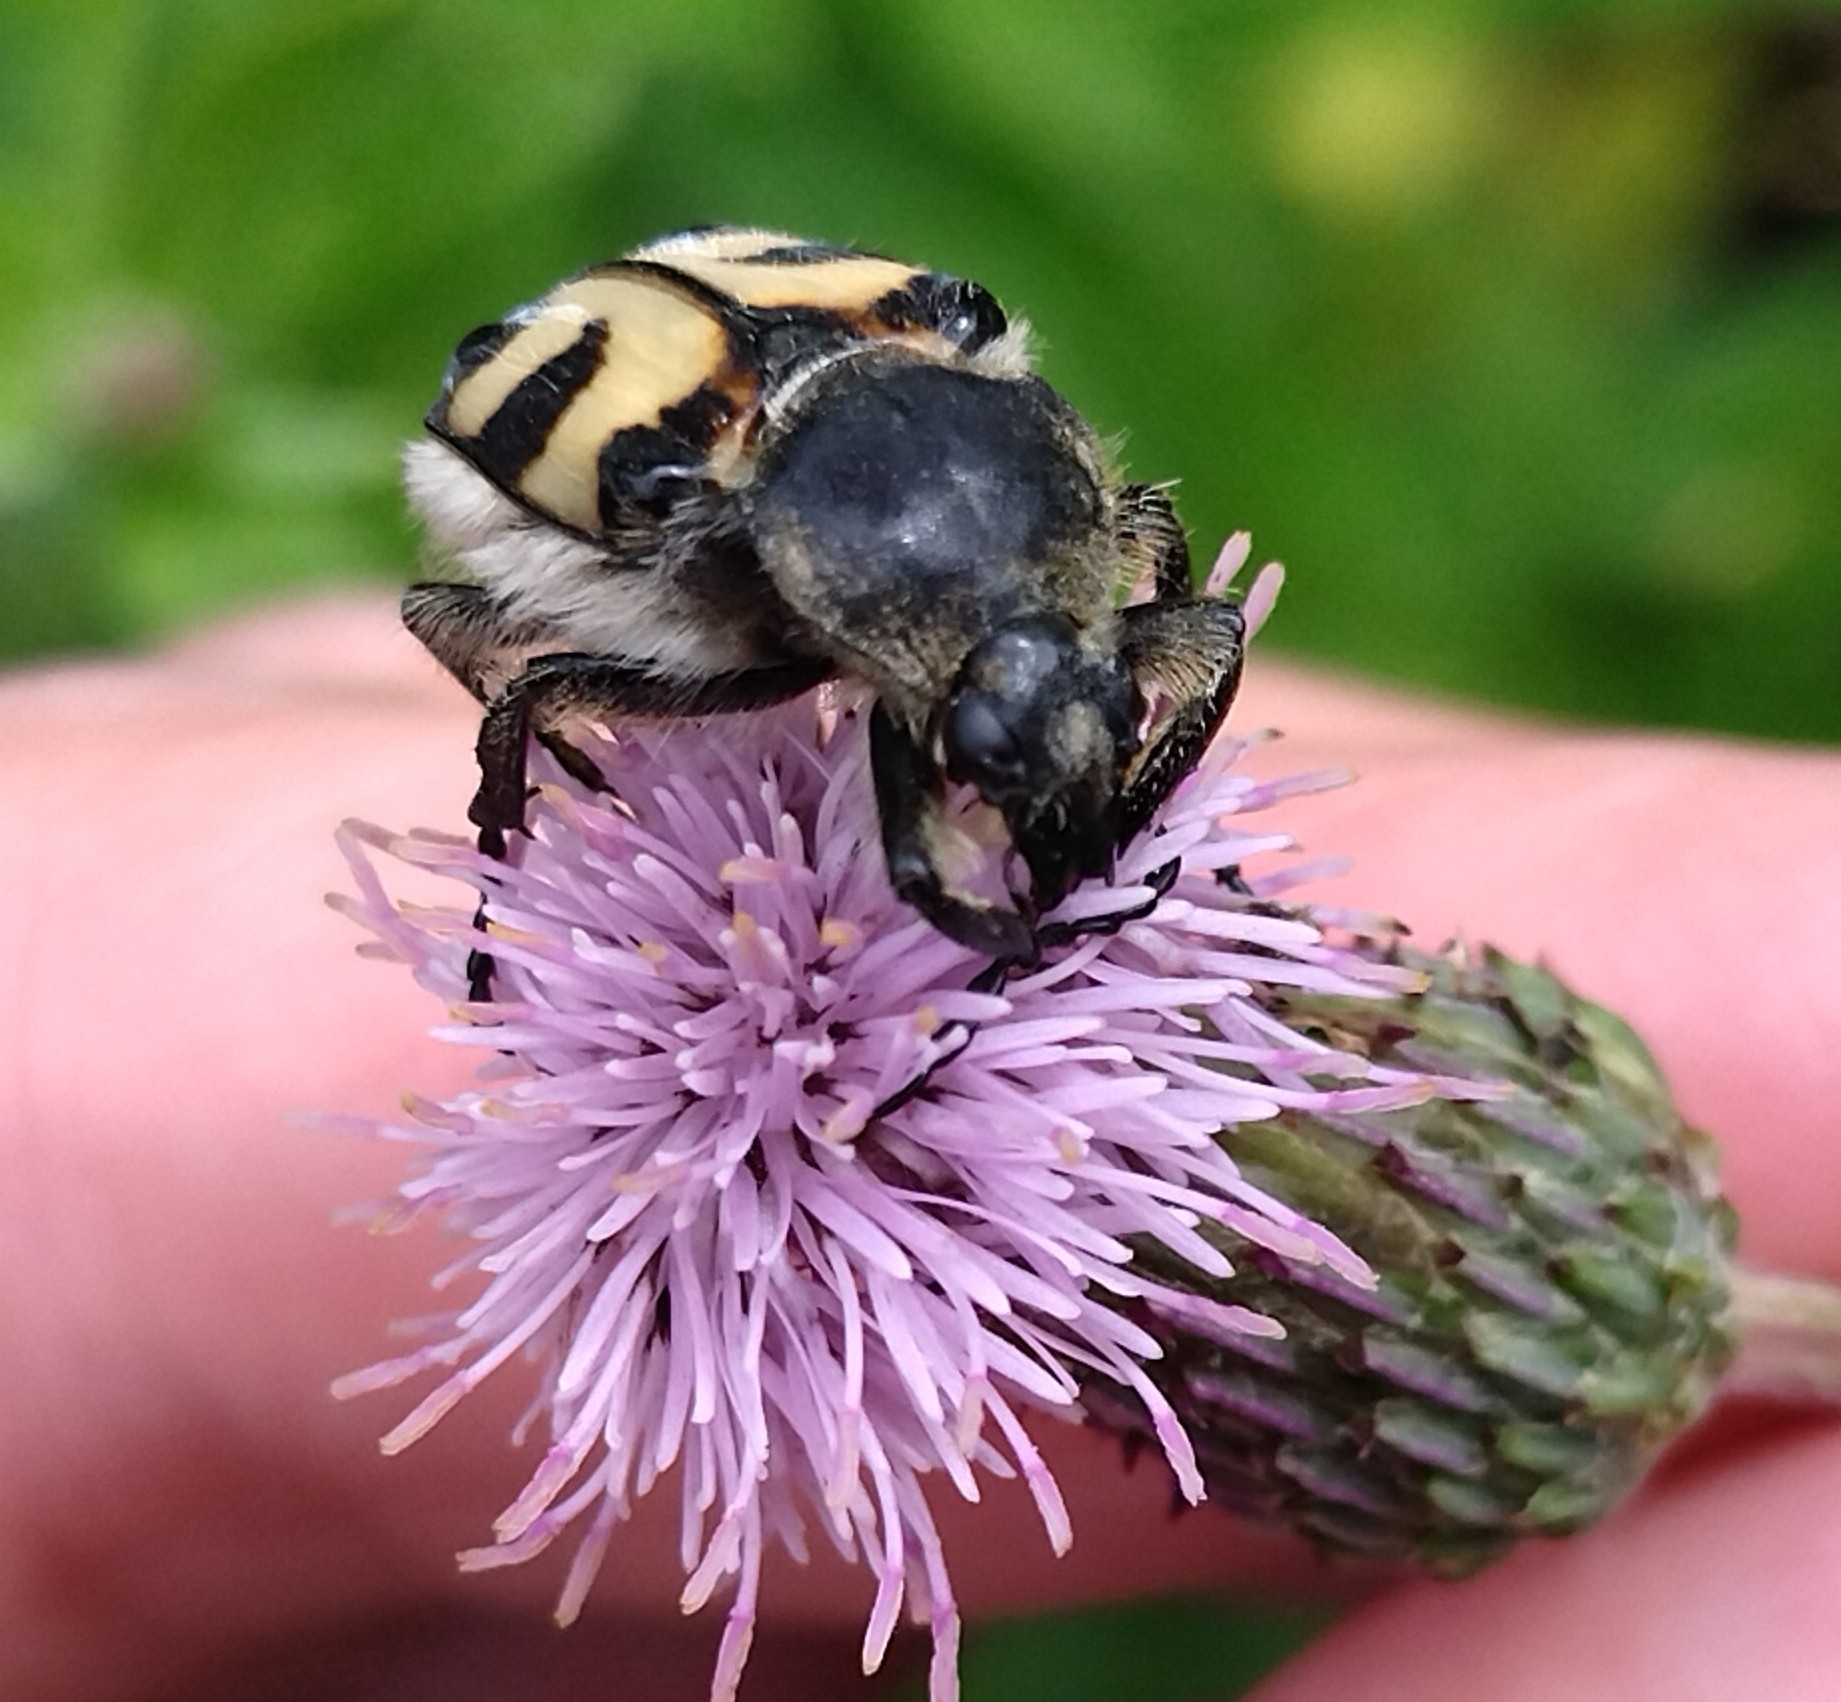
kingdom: Animalia
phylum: Arthropoda
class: Insecta
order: Coleoptera
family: Scarabaeidae
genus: Trichius
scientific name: Trichius fasciatus
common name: Bee beetle
